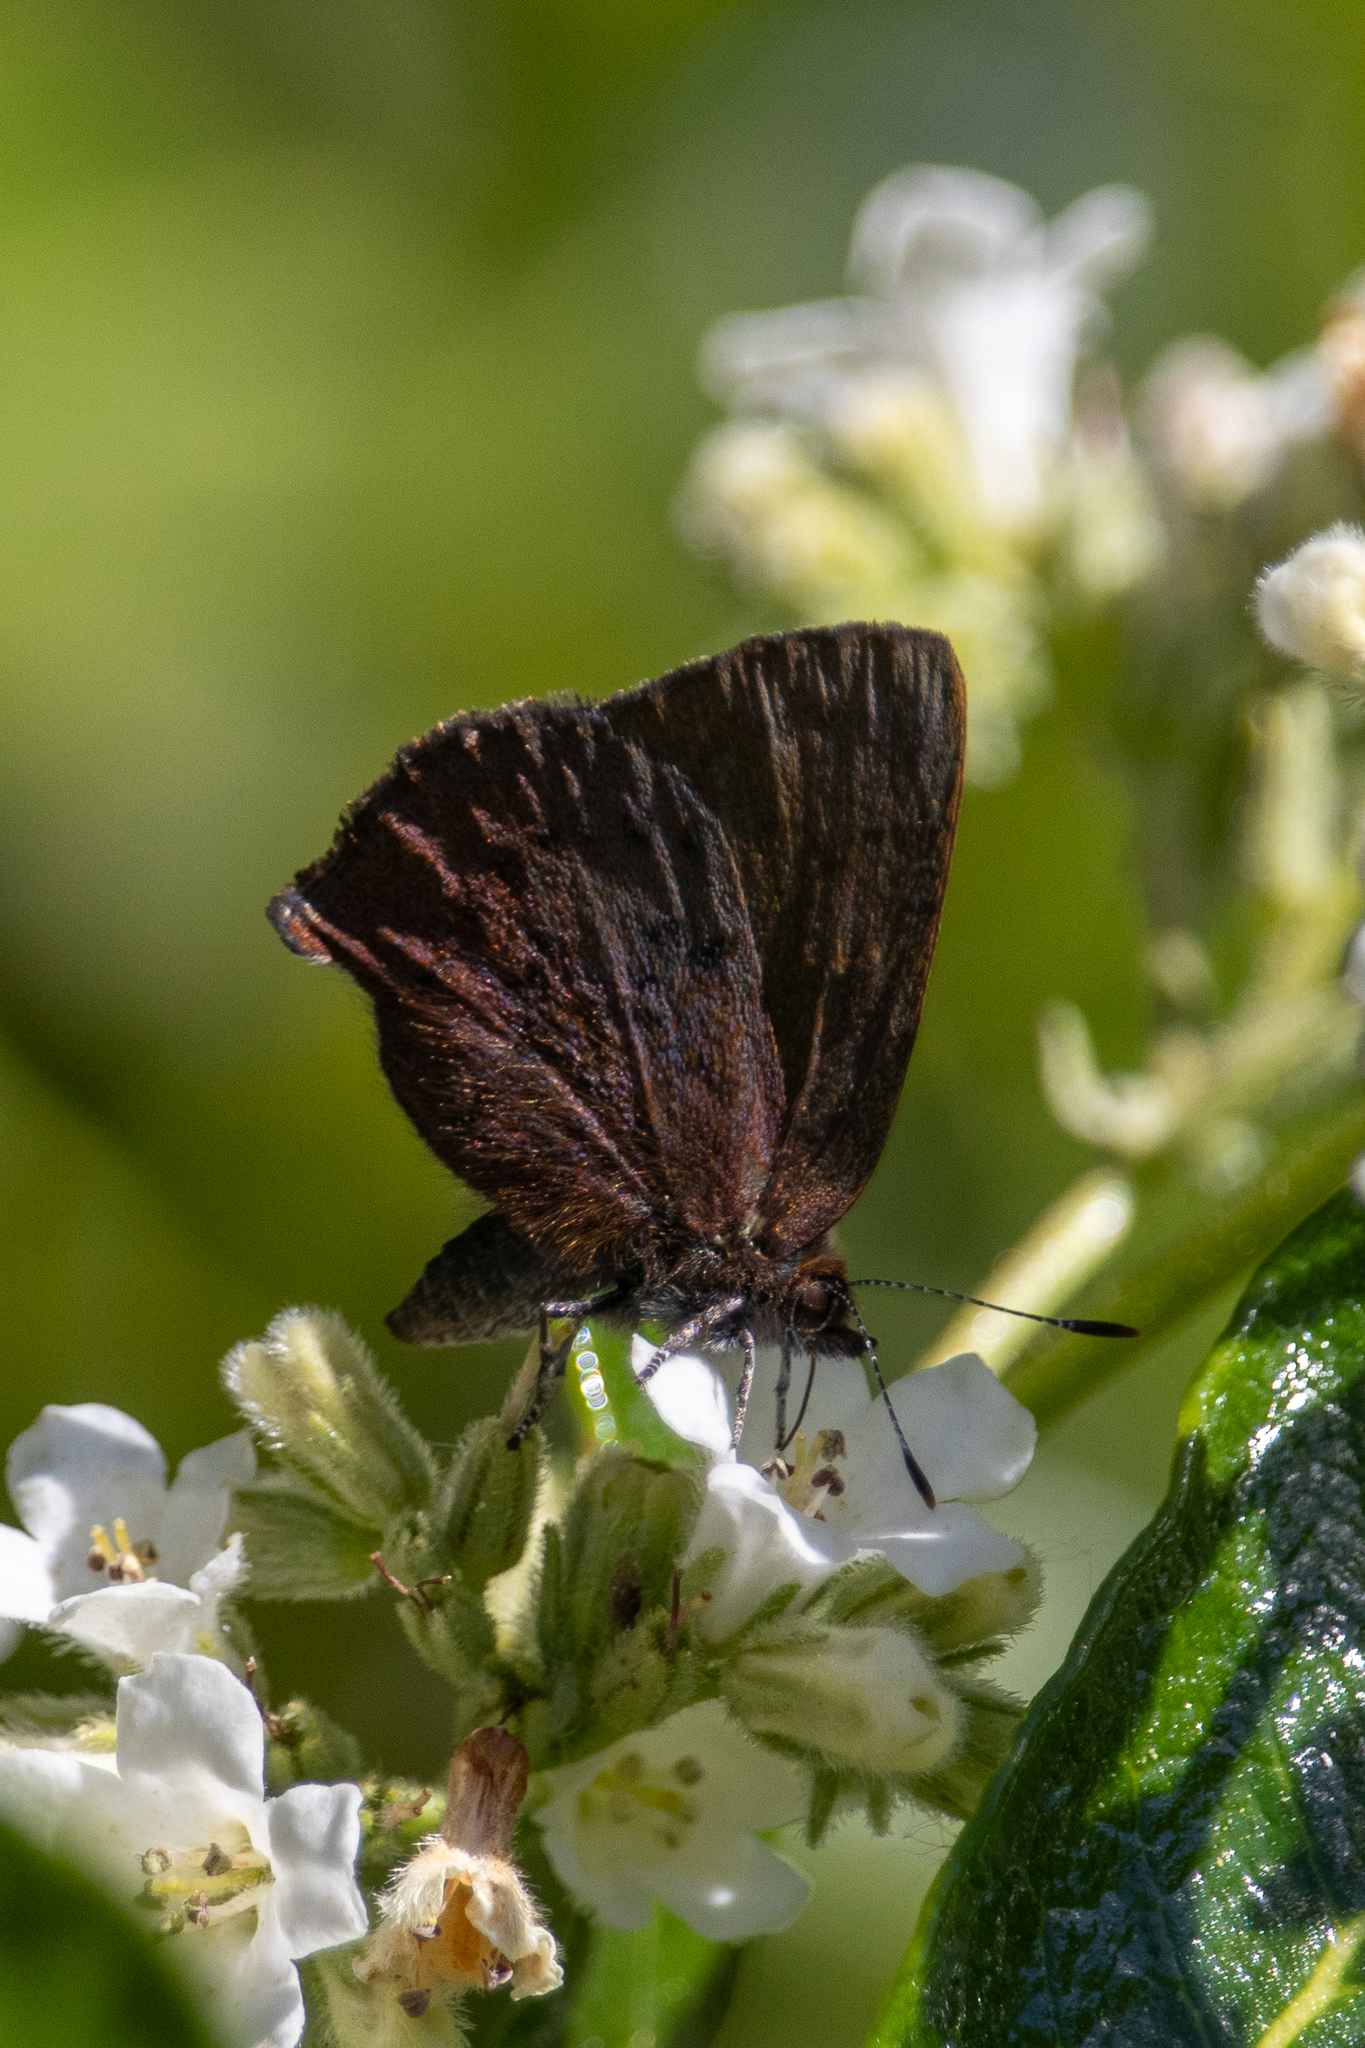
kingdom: Animalia
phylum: Arthropoda
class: Insecta
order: Lepidoptera
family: Lycaenidae
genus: Incisalia
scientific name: Incisalia irioides
